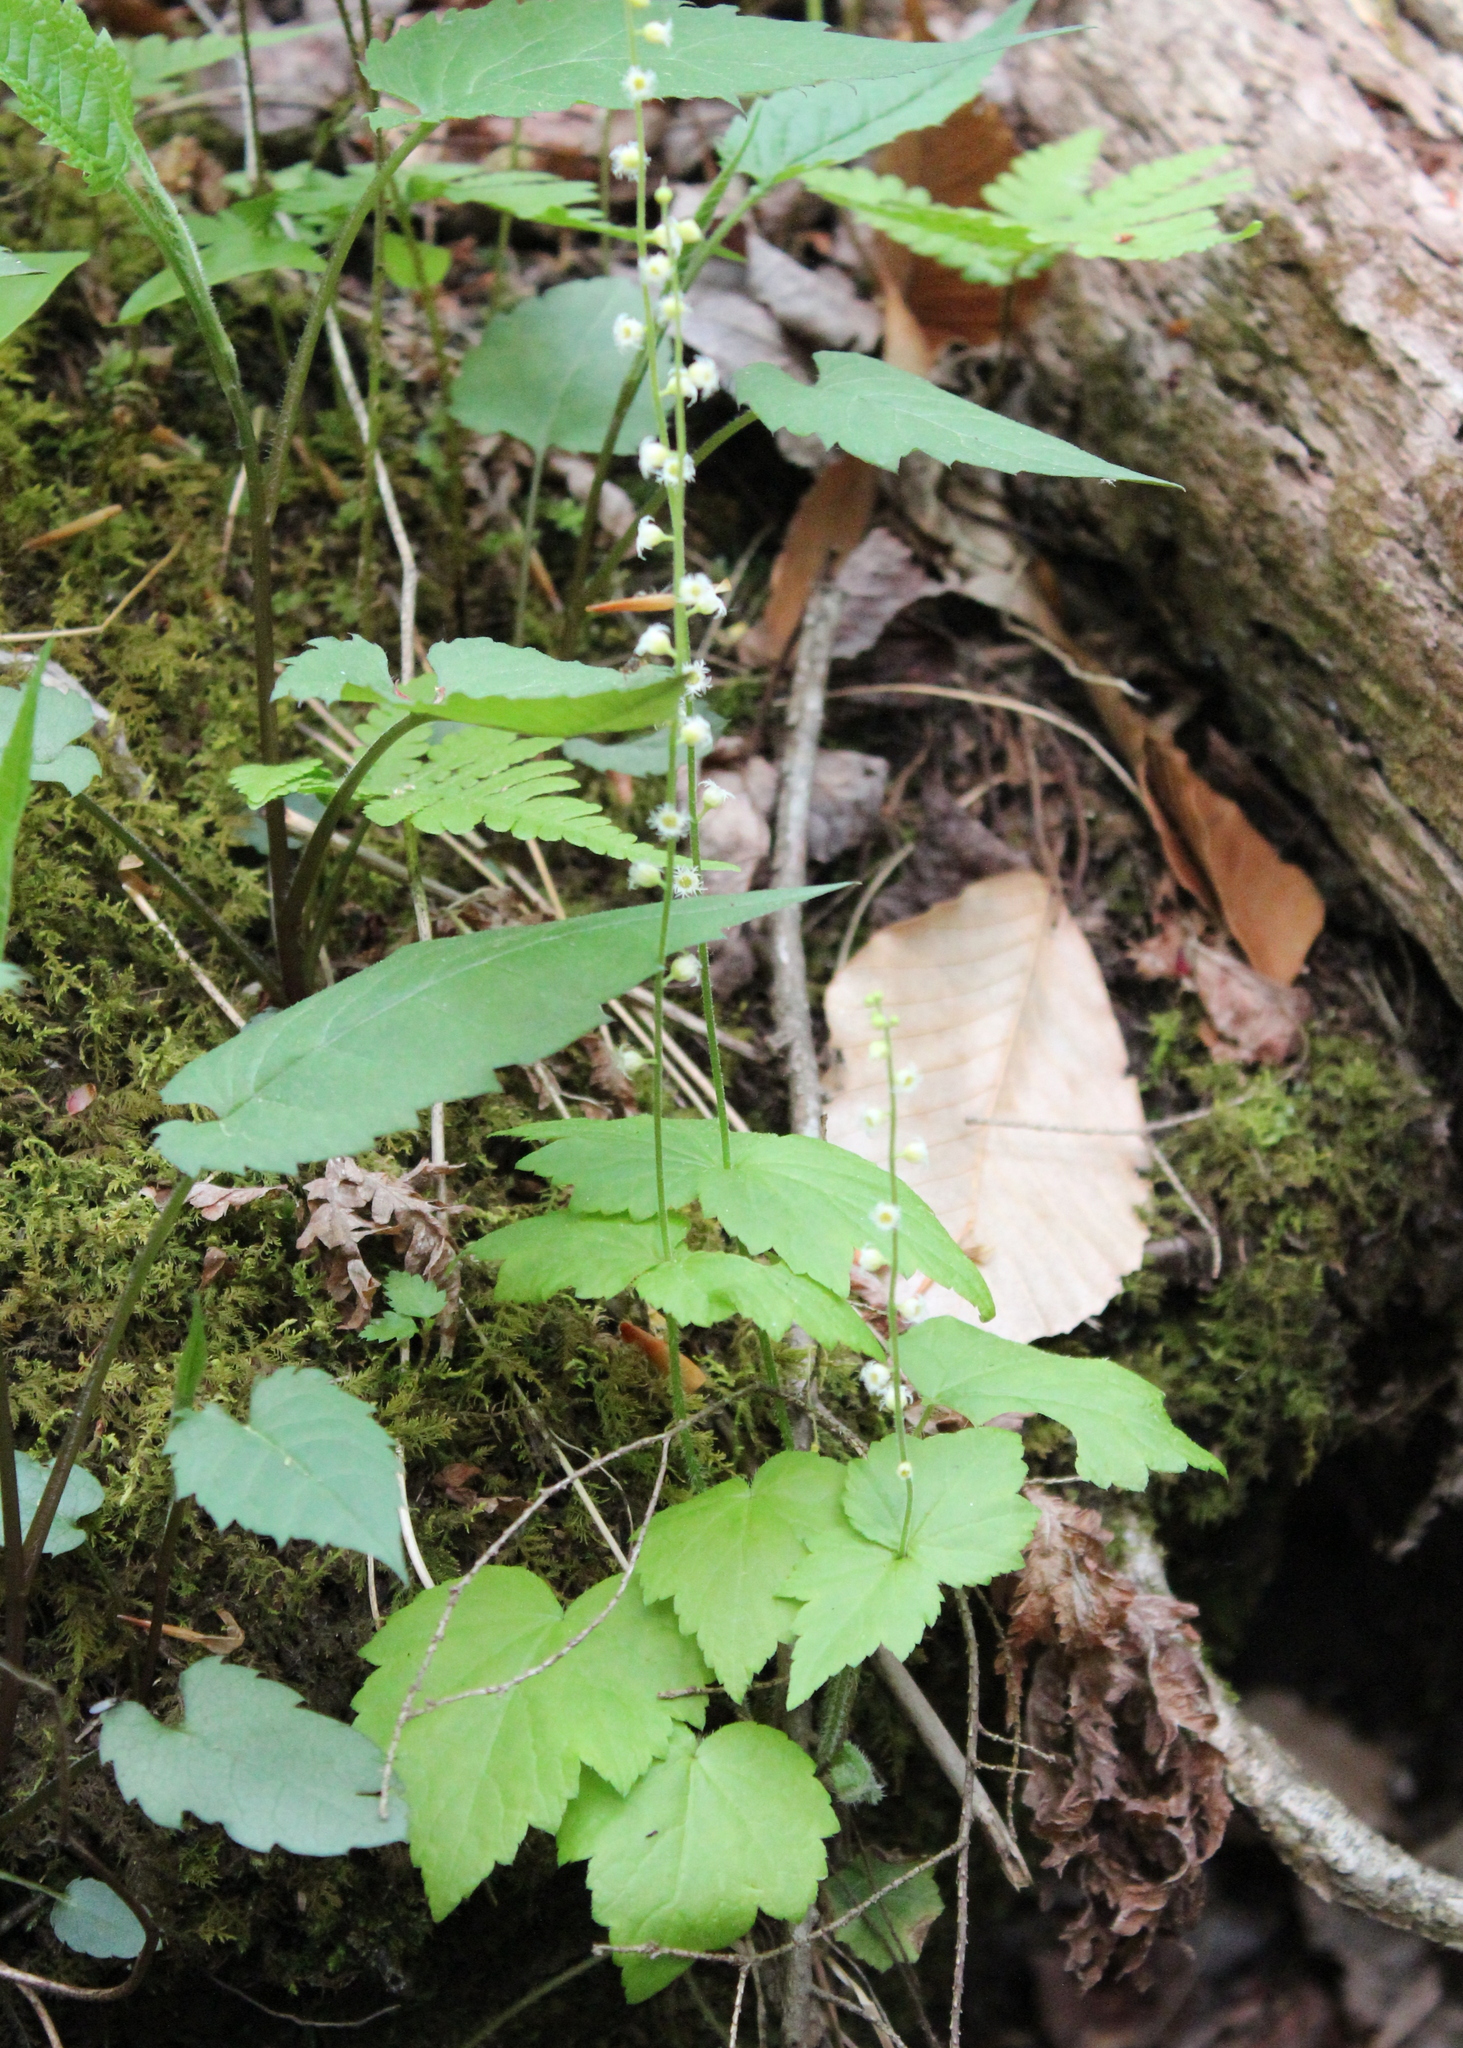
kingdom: Plantae
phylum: Tracheophyta
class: Magnoliopsida
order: Saxifragales
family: Saxifragaceae
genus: Mitella
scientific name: Mitella diphylla
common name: Coolwort
